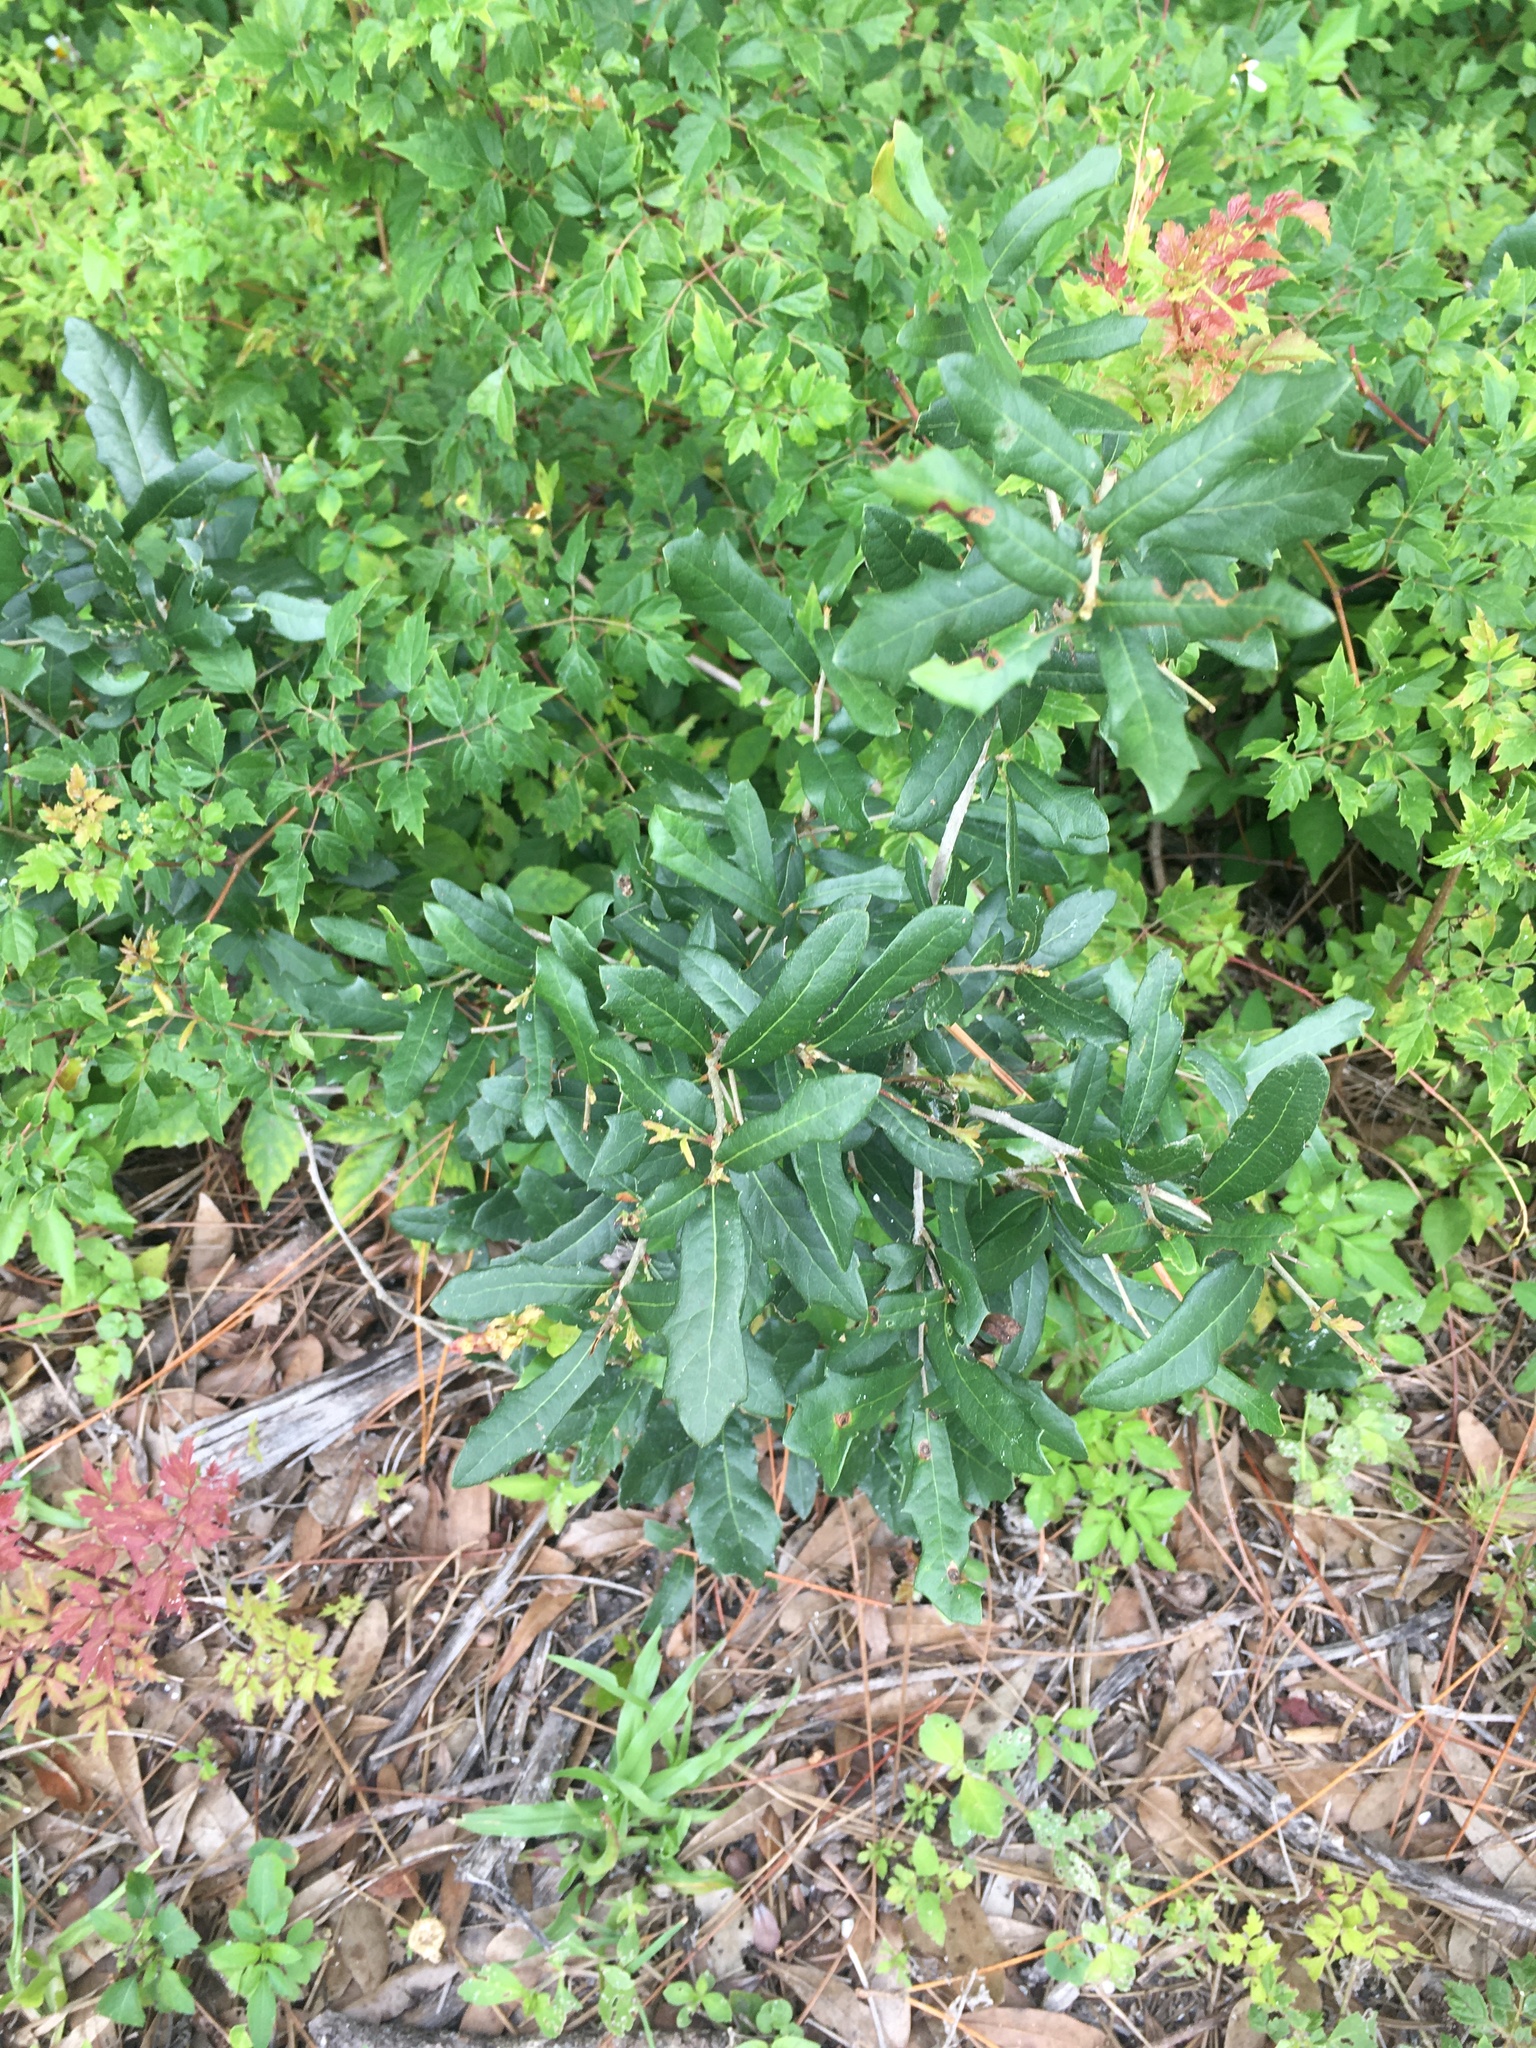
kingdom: Plantae
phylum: Tracheophyta
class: Magnoliopsida
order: Fagales
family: Fagaceae
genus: Quercus
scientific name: Quercus virginiana
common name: Southern live oak
